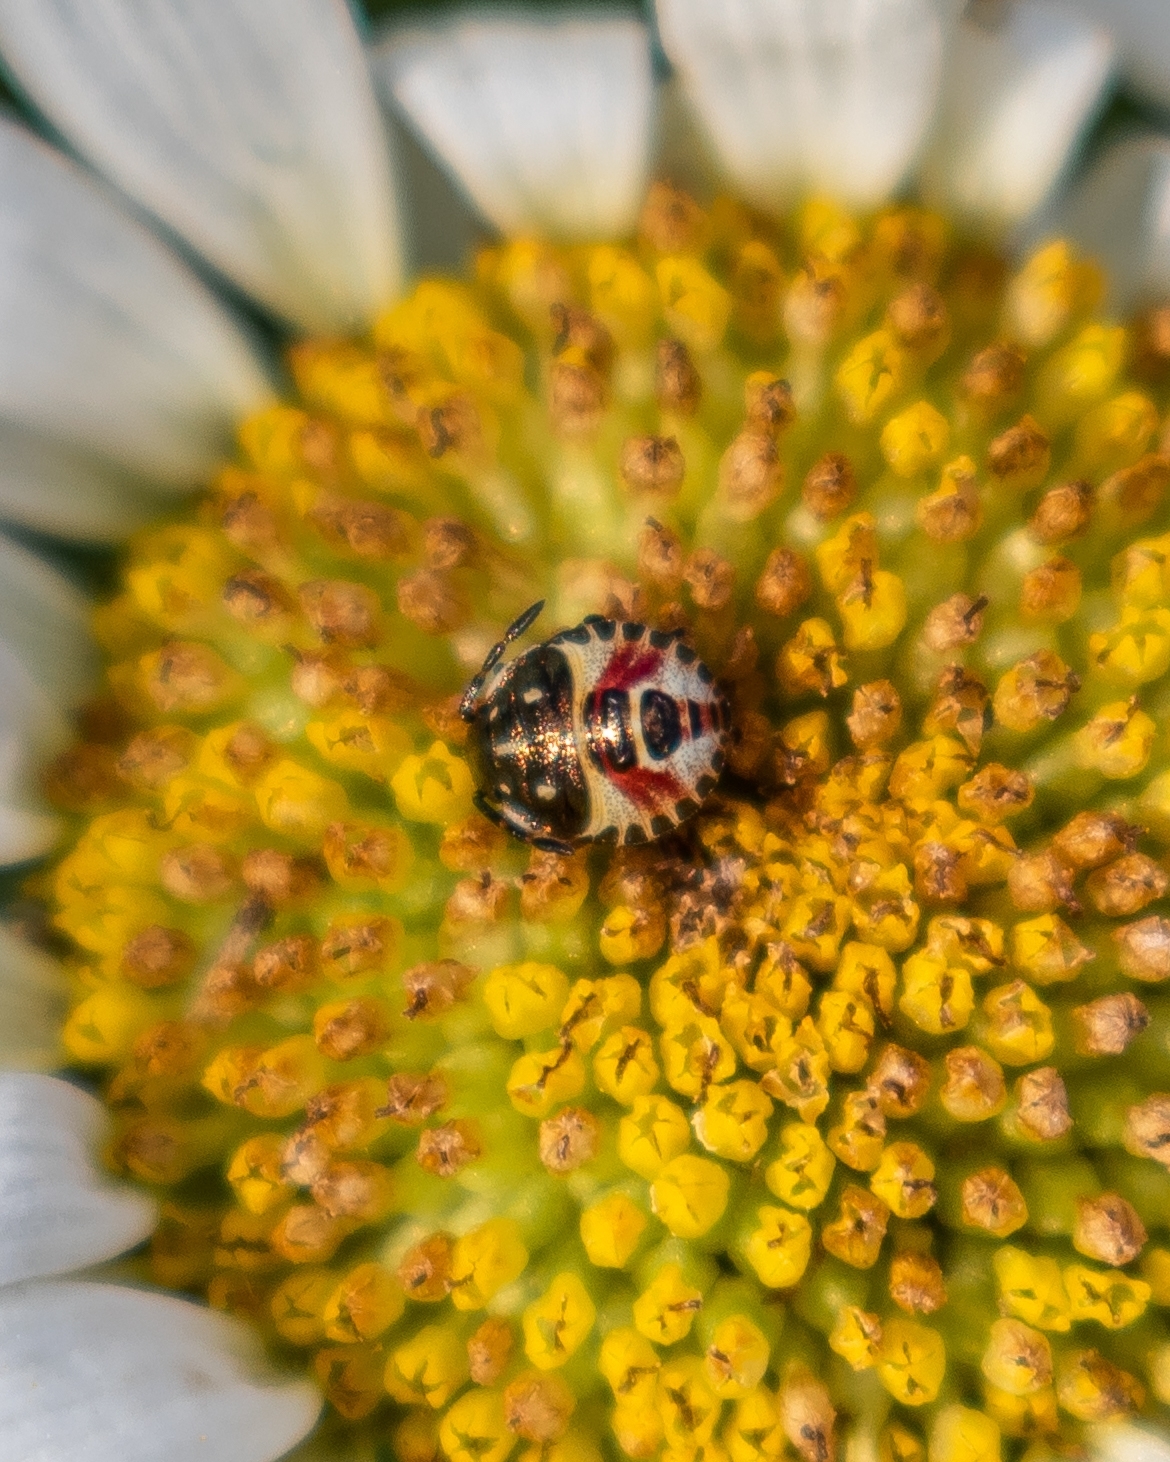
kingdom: Animalia
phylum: Arthropoda
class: Insecta
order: Hemiptera
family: Pentatomidae
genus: Carpocoris
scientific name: Carpocoris purpureipennis
